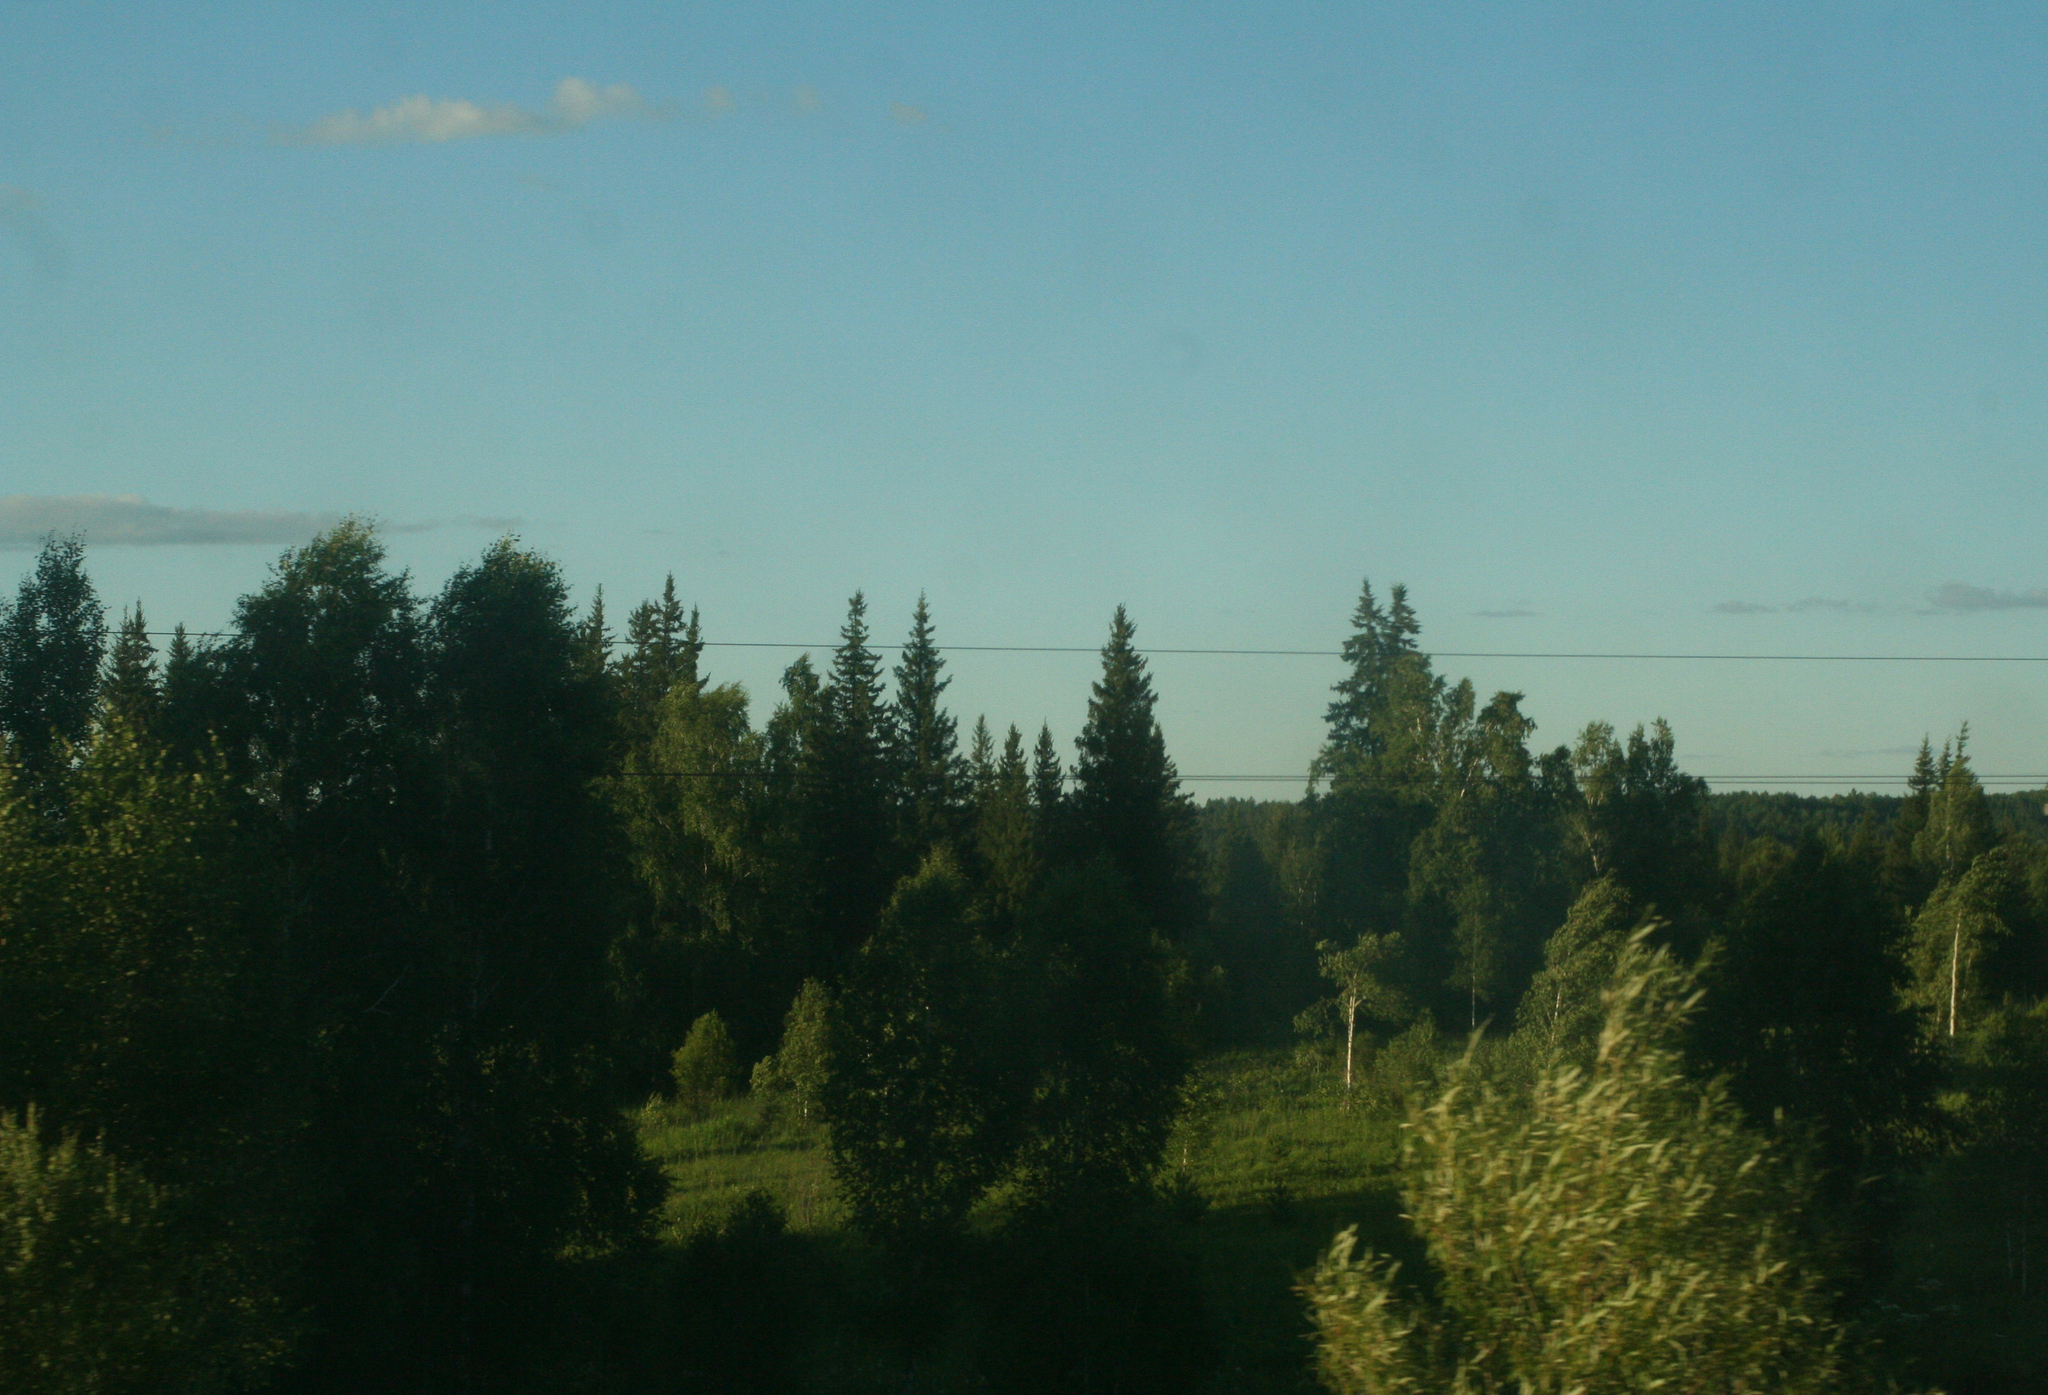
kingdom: Plantae
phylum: Tracheophyta
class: Pinopsida
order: Pinales
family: Pinaceae
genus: Picea
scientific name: Picea obovata
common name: Siberian spruce
